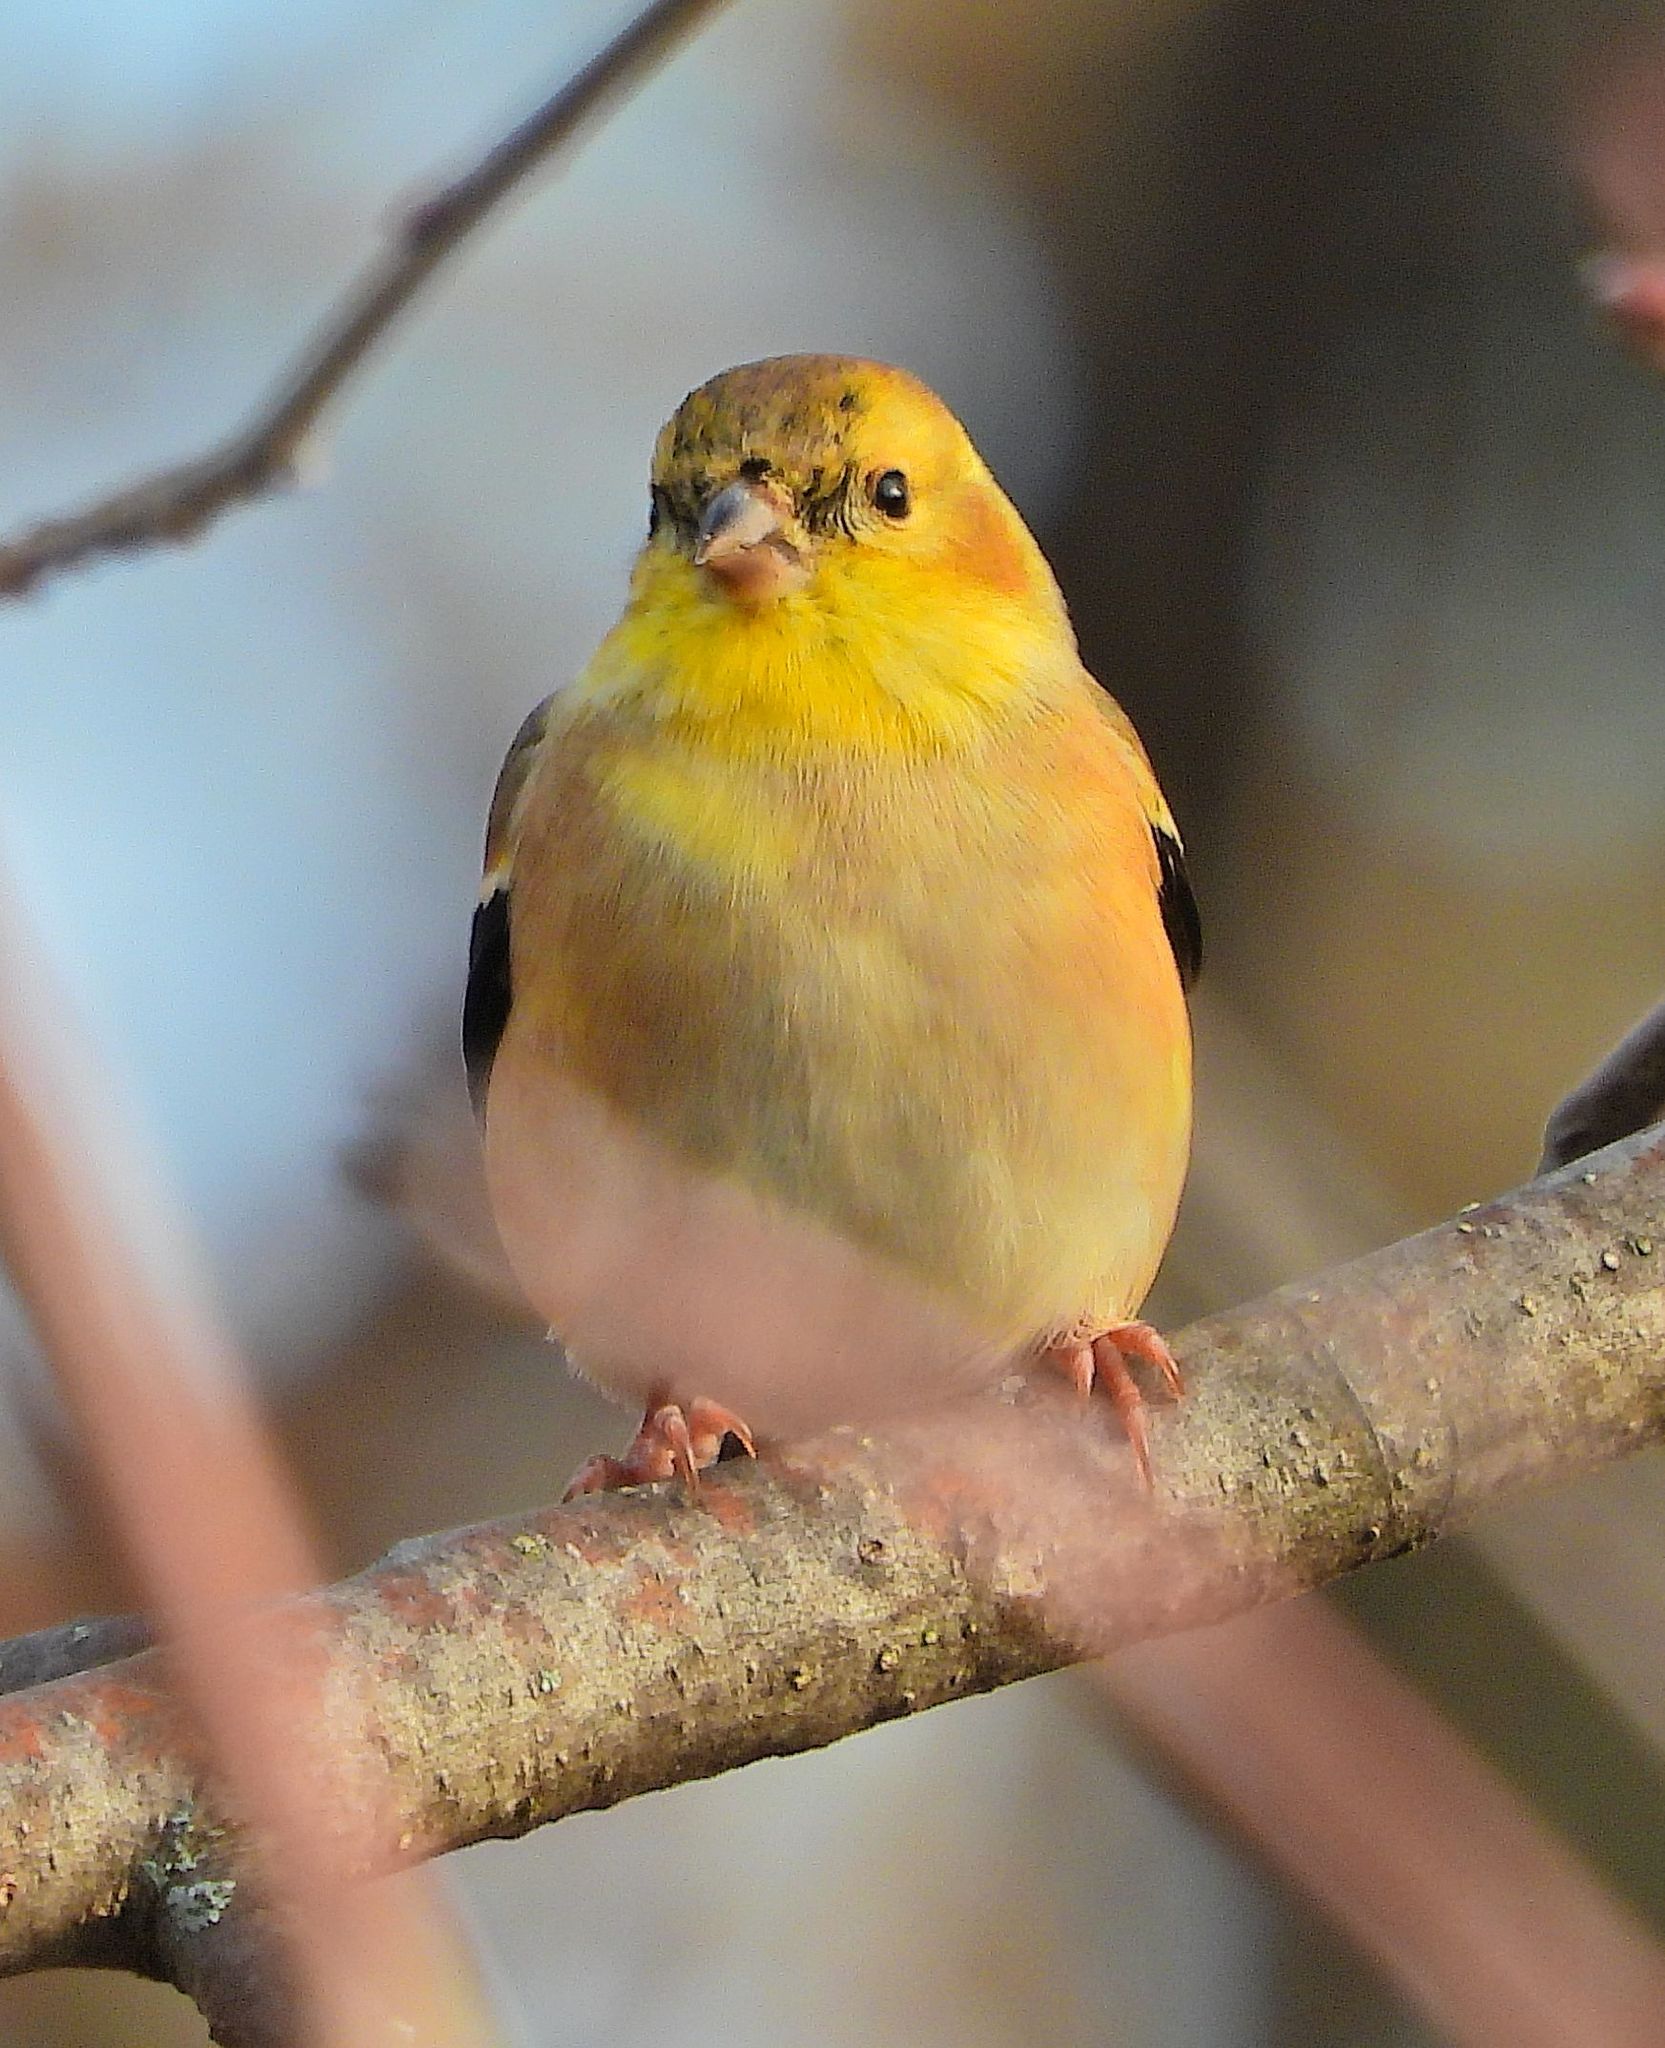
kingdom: Animalia
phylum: Chordata
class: Aves
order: Passeriformes
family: Fringillidae
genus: Spinus
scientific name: Spinus tristis
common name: American goldfinch
